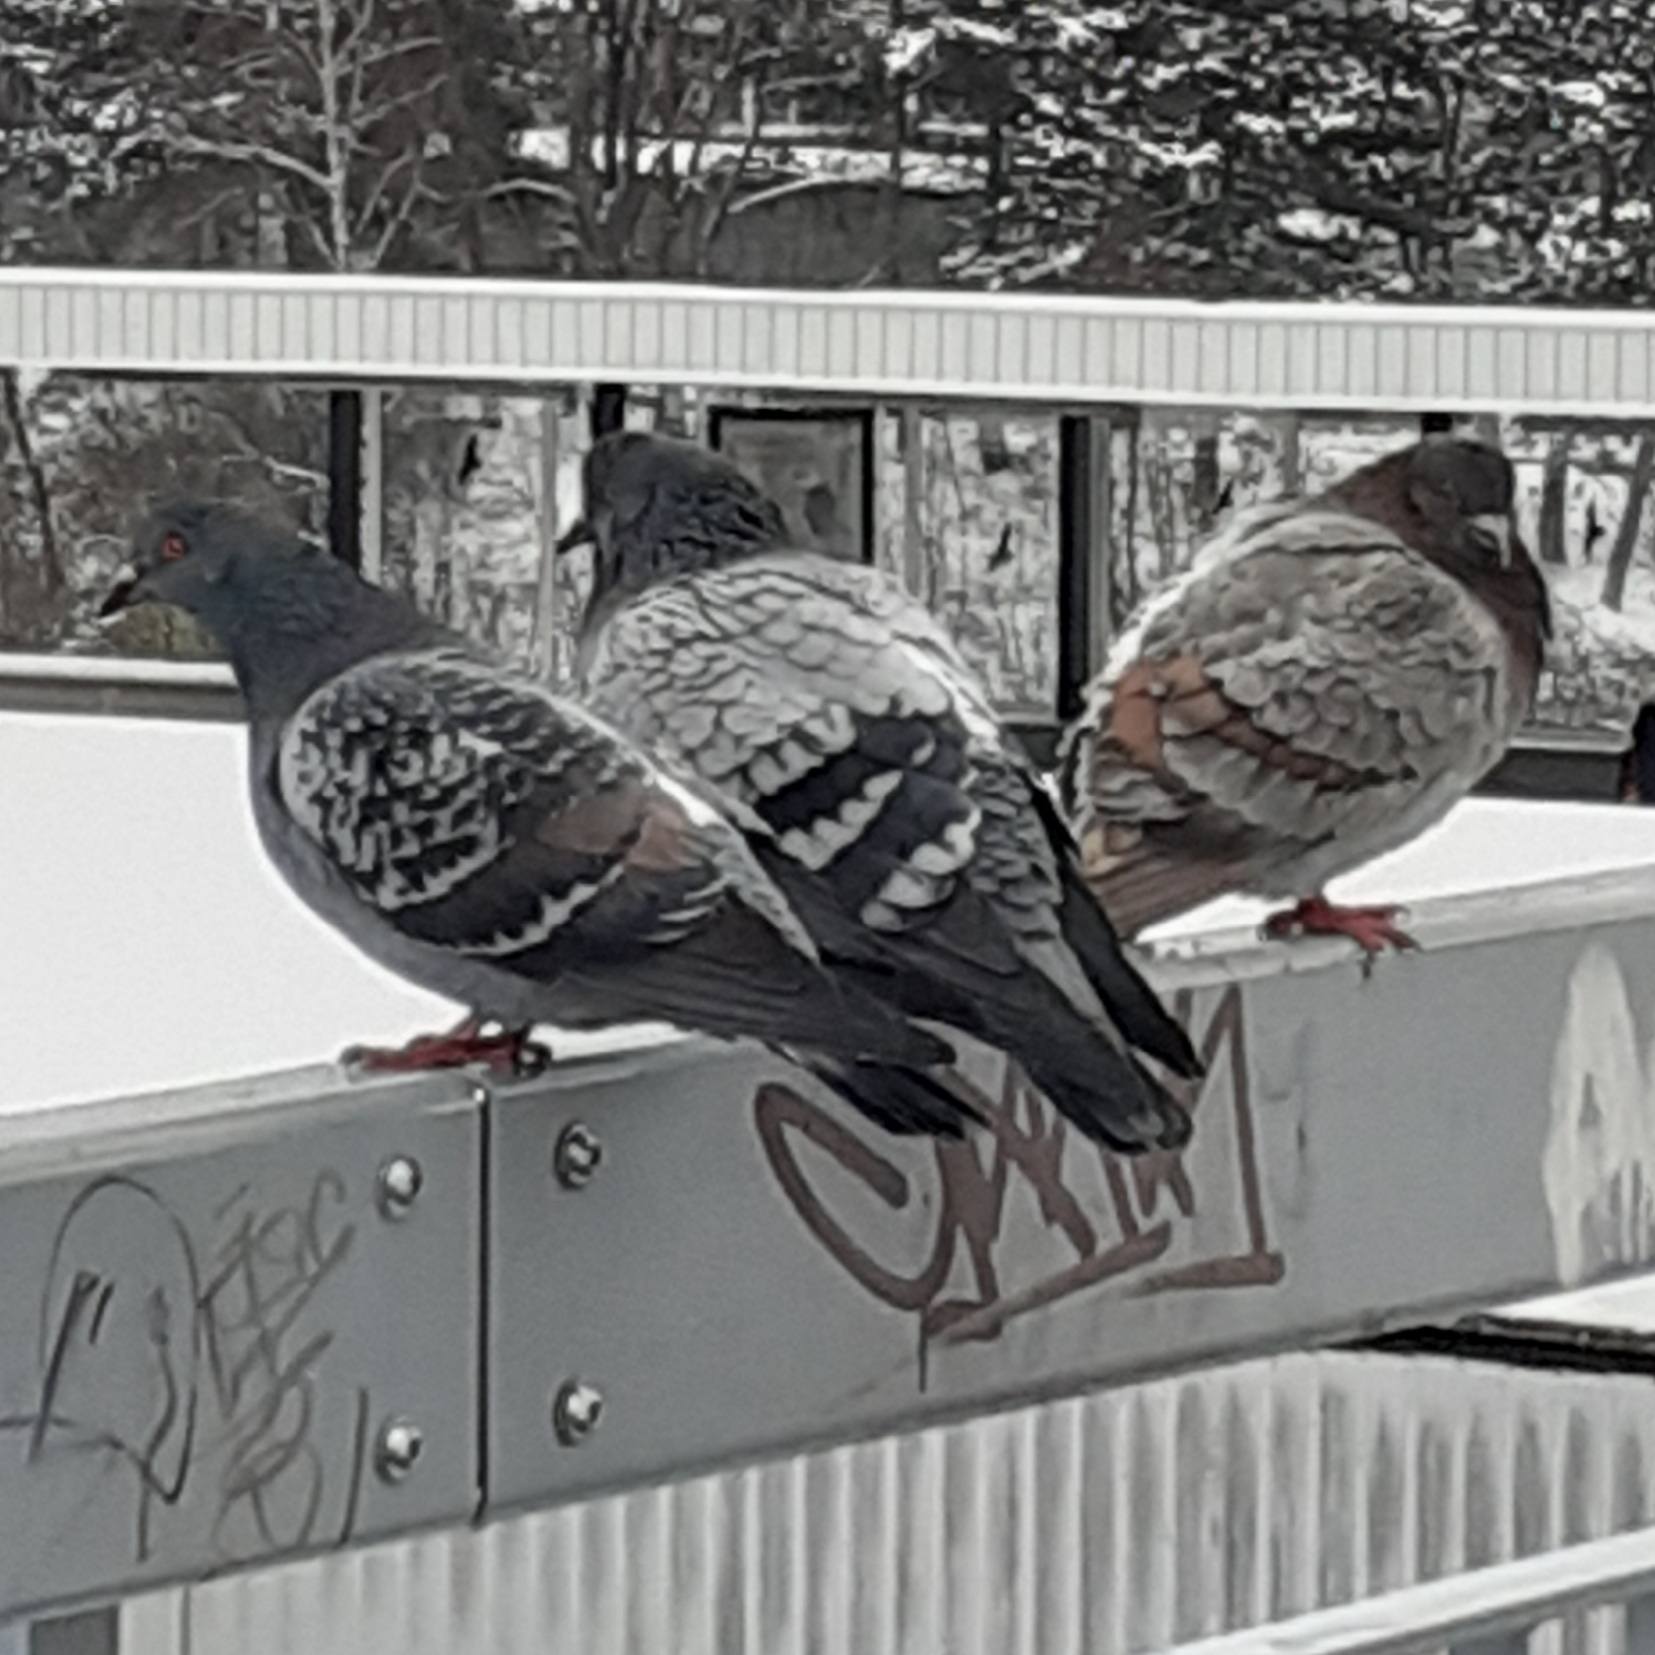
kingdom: Animalia
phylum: Chordata
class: Aves
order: Columbiformes
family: Columbidae
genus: Columba
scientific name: Columba livia
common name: Rock pigeon
